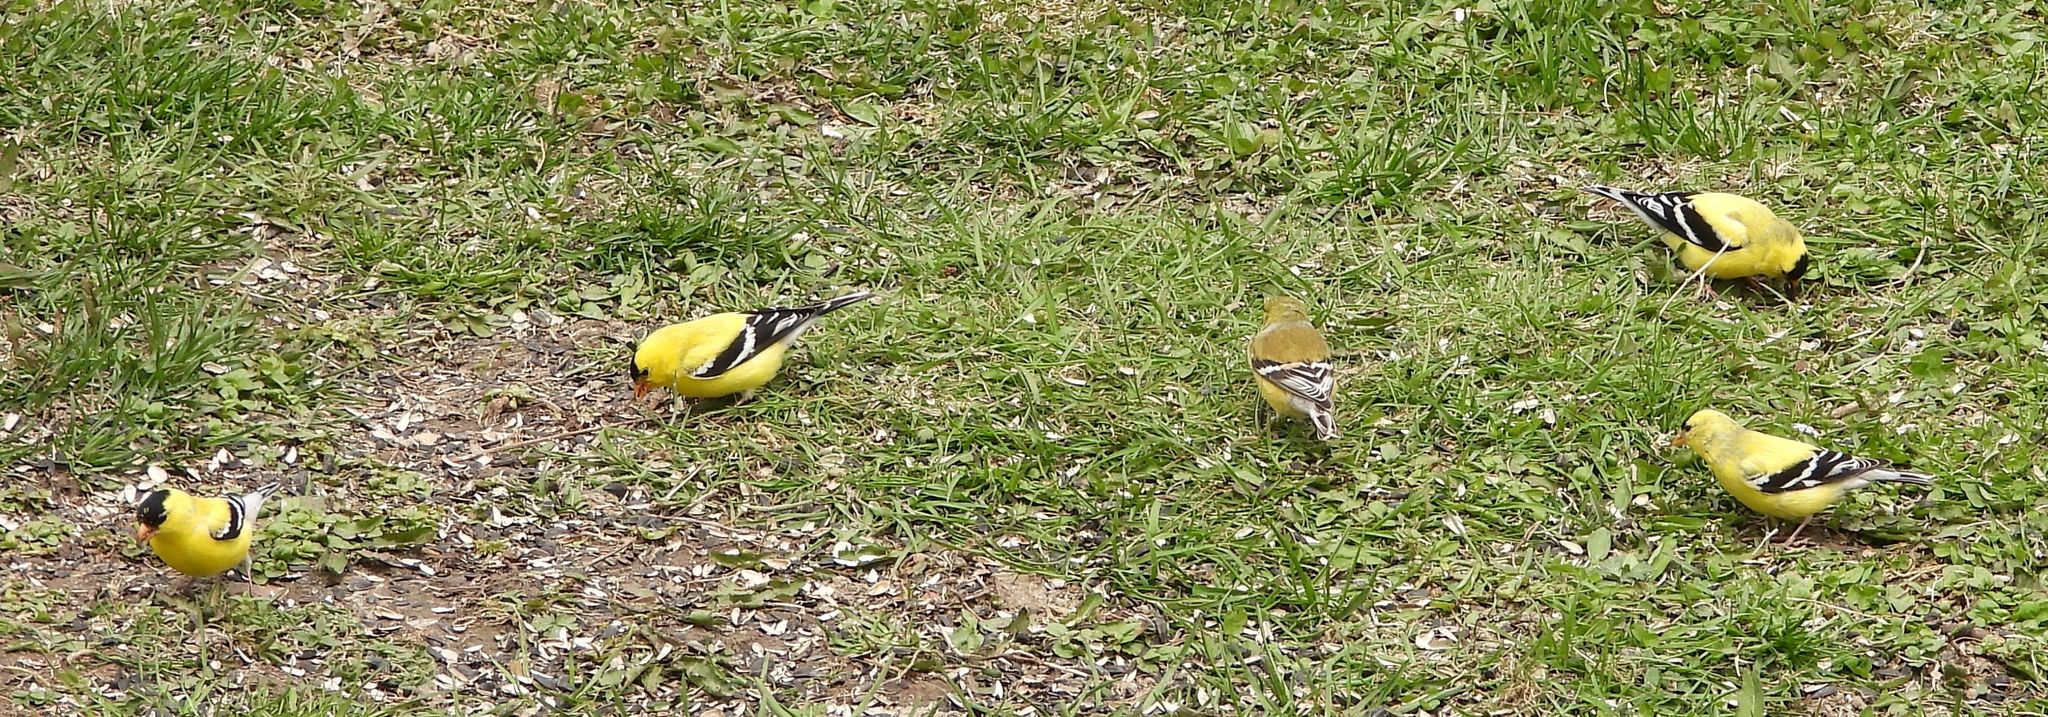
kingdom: Animalia
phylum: Chordata
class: Aves
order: Passeriformes
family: Fringillidae
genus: Spinus
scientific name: Spinus tristis
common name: American goldfinch
